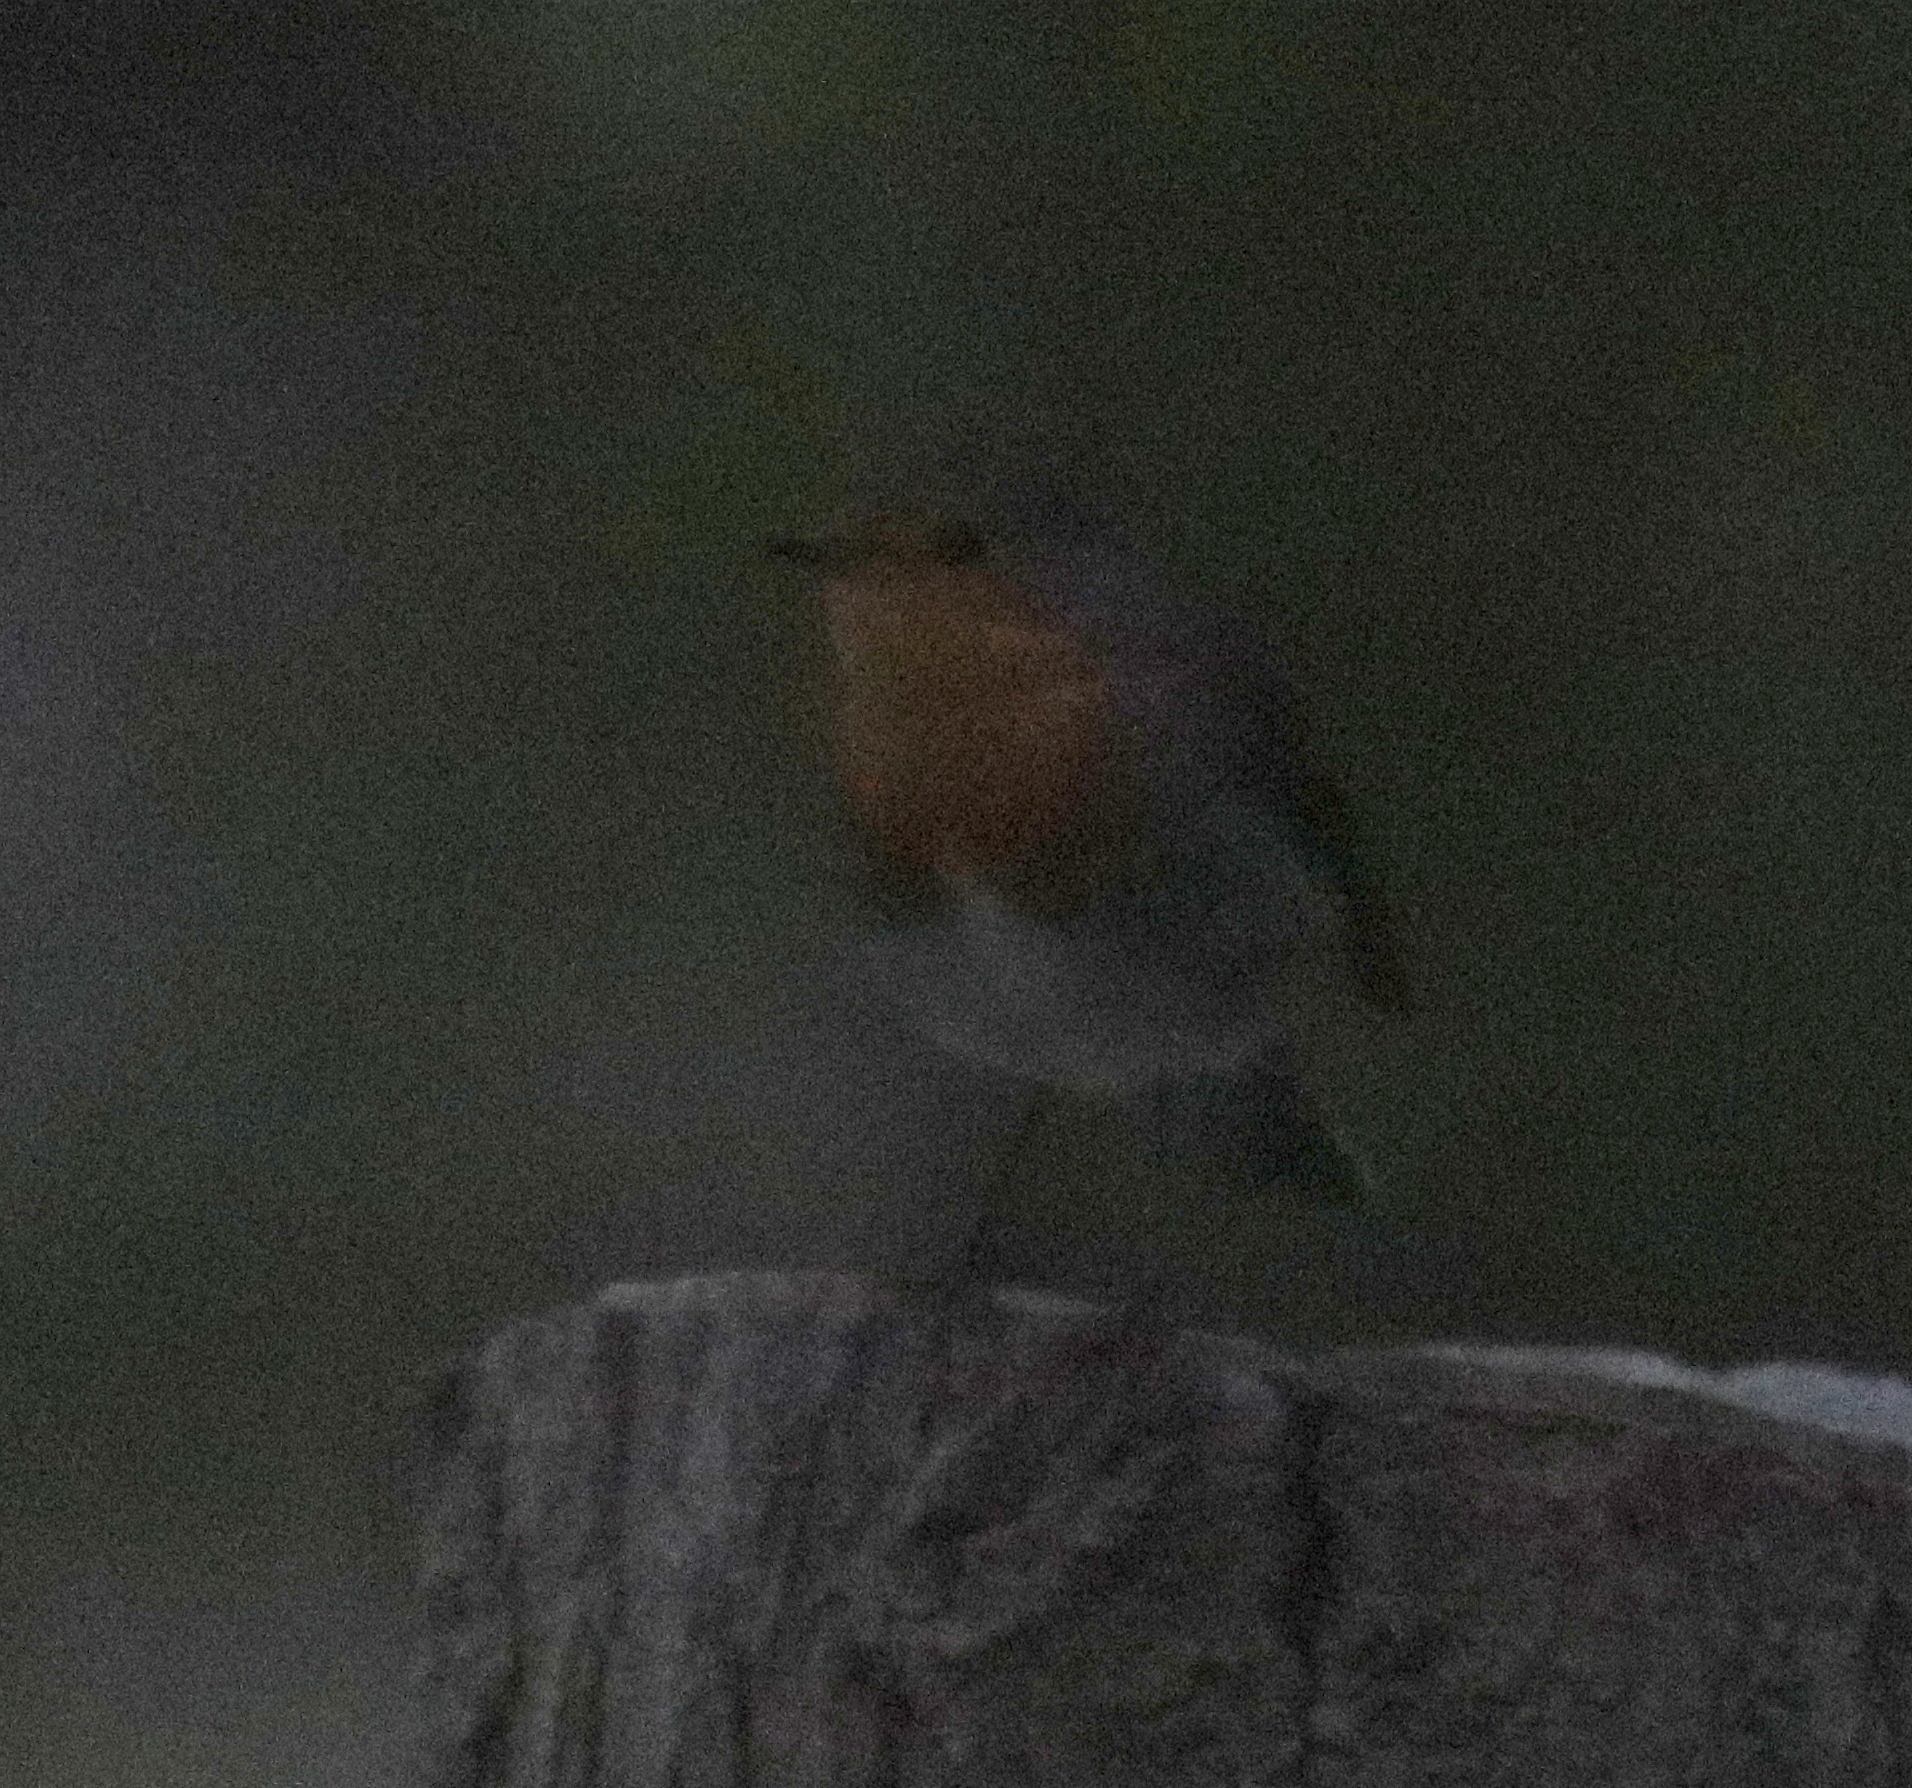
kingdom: Animalia
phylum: Chordata
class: Aves
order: Passeriformes
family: Muscicapidae
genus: Erithacus
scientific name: Erithacus rubecula
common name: European robin
